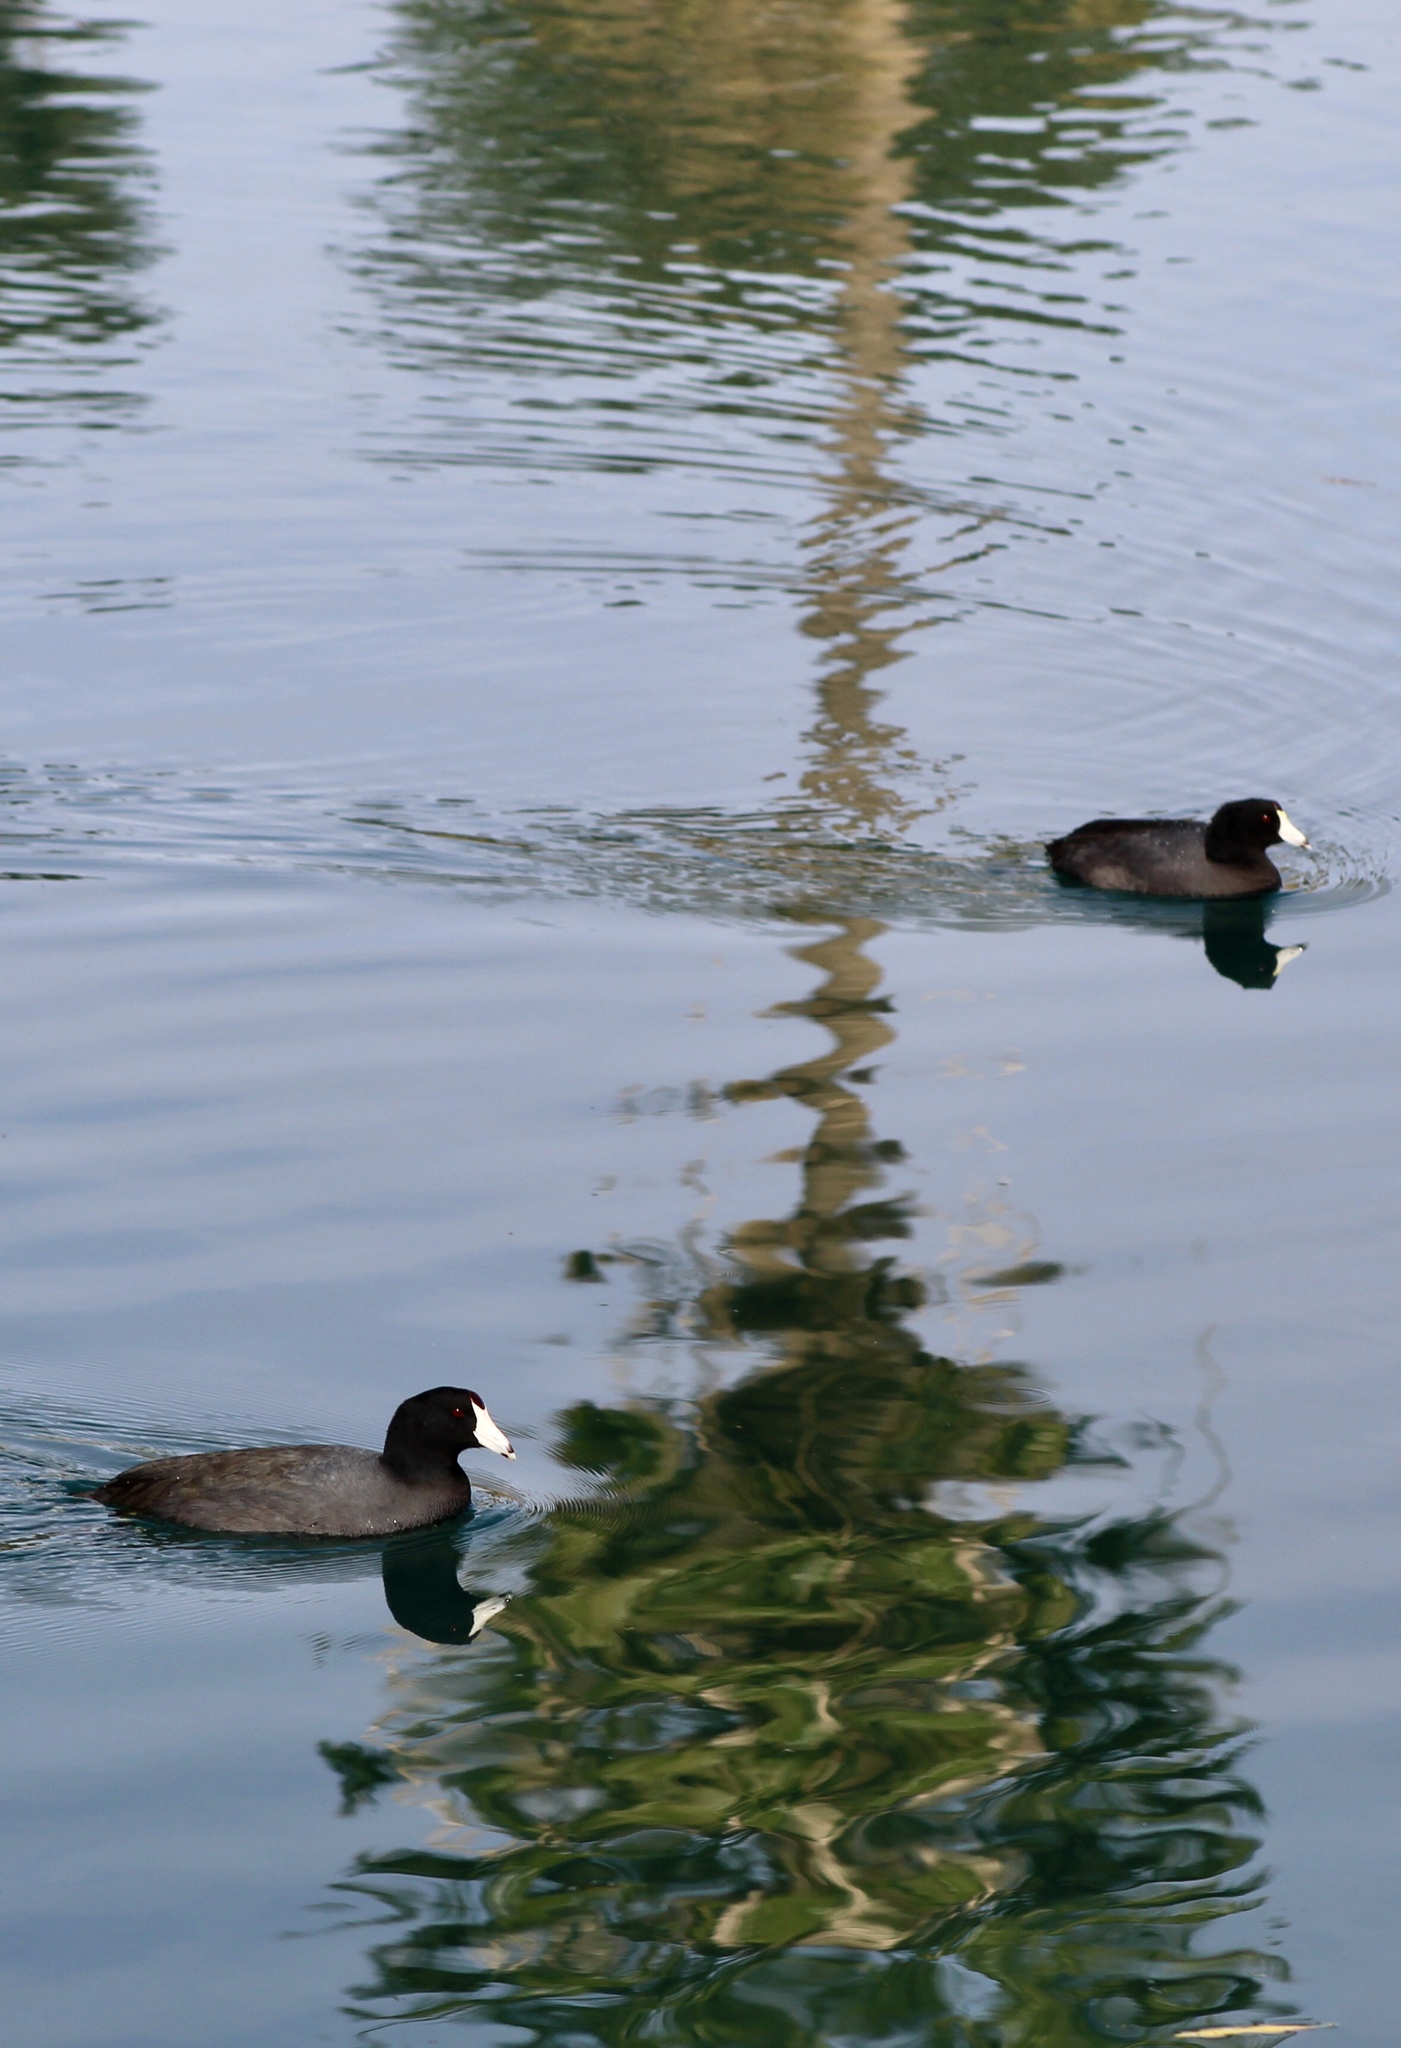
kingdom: Animalia
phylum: Chordata
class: Aves
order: Gruiformes
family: Rallidae
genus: Fulica
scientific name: Fulica americana
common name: American coot
